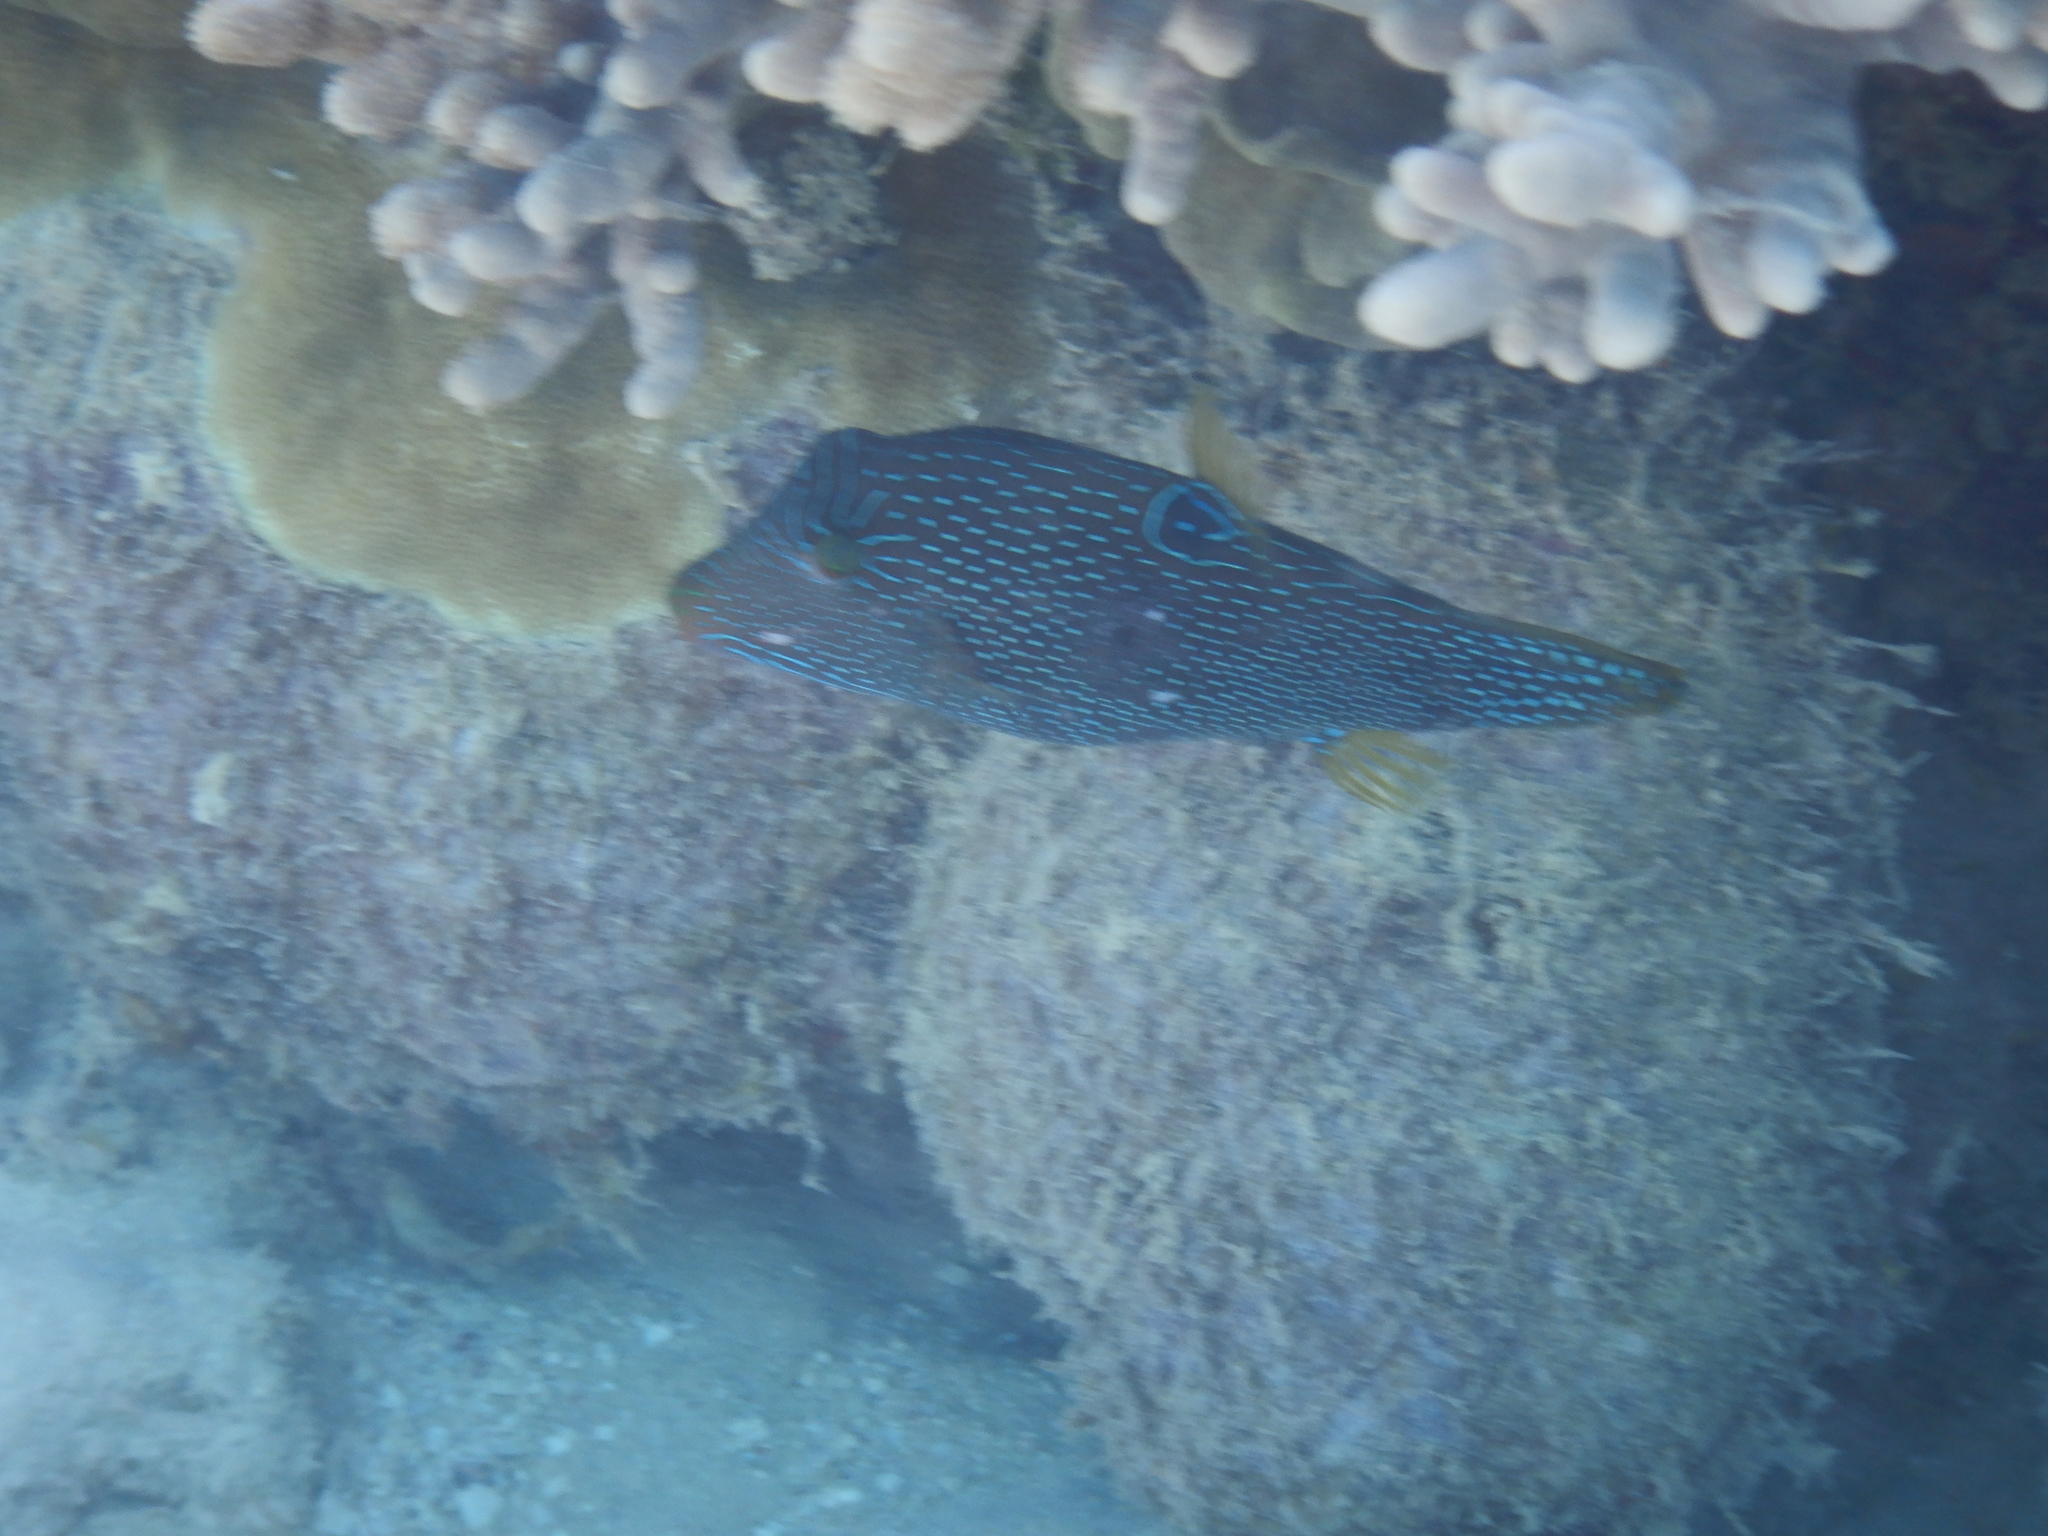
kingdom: Animalia
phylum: Chordata
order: Tetraodontiformes
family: Tetraodontidae
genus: Canthigaster
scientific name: Canthigaster papua
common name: False-eyed pufferfish
